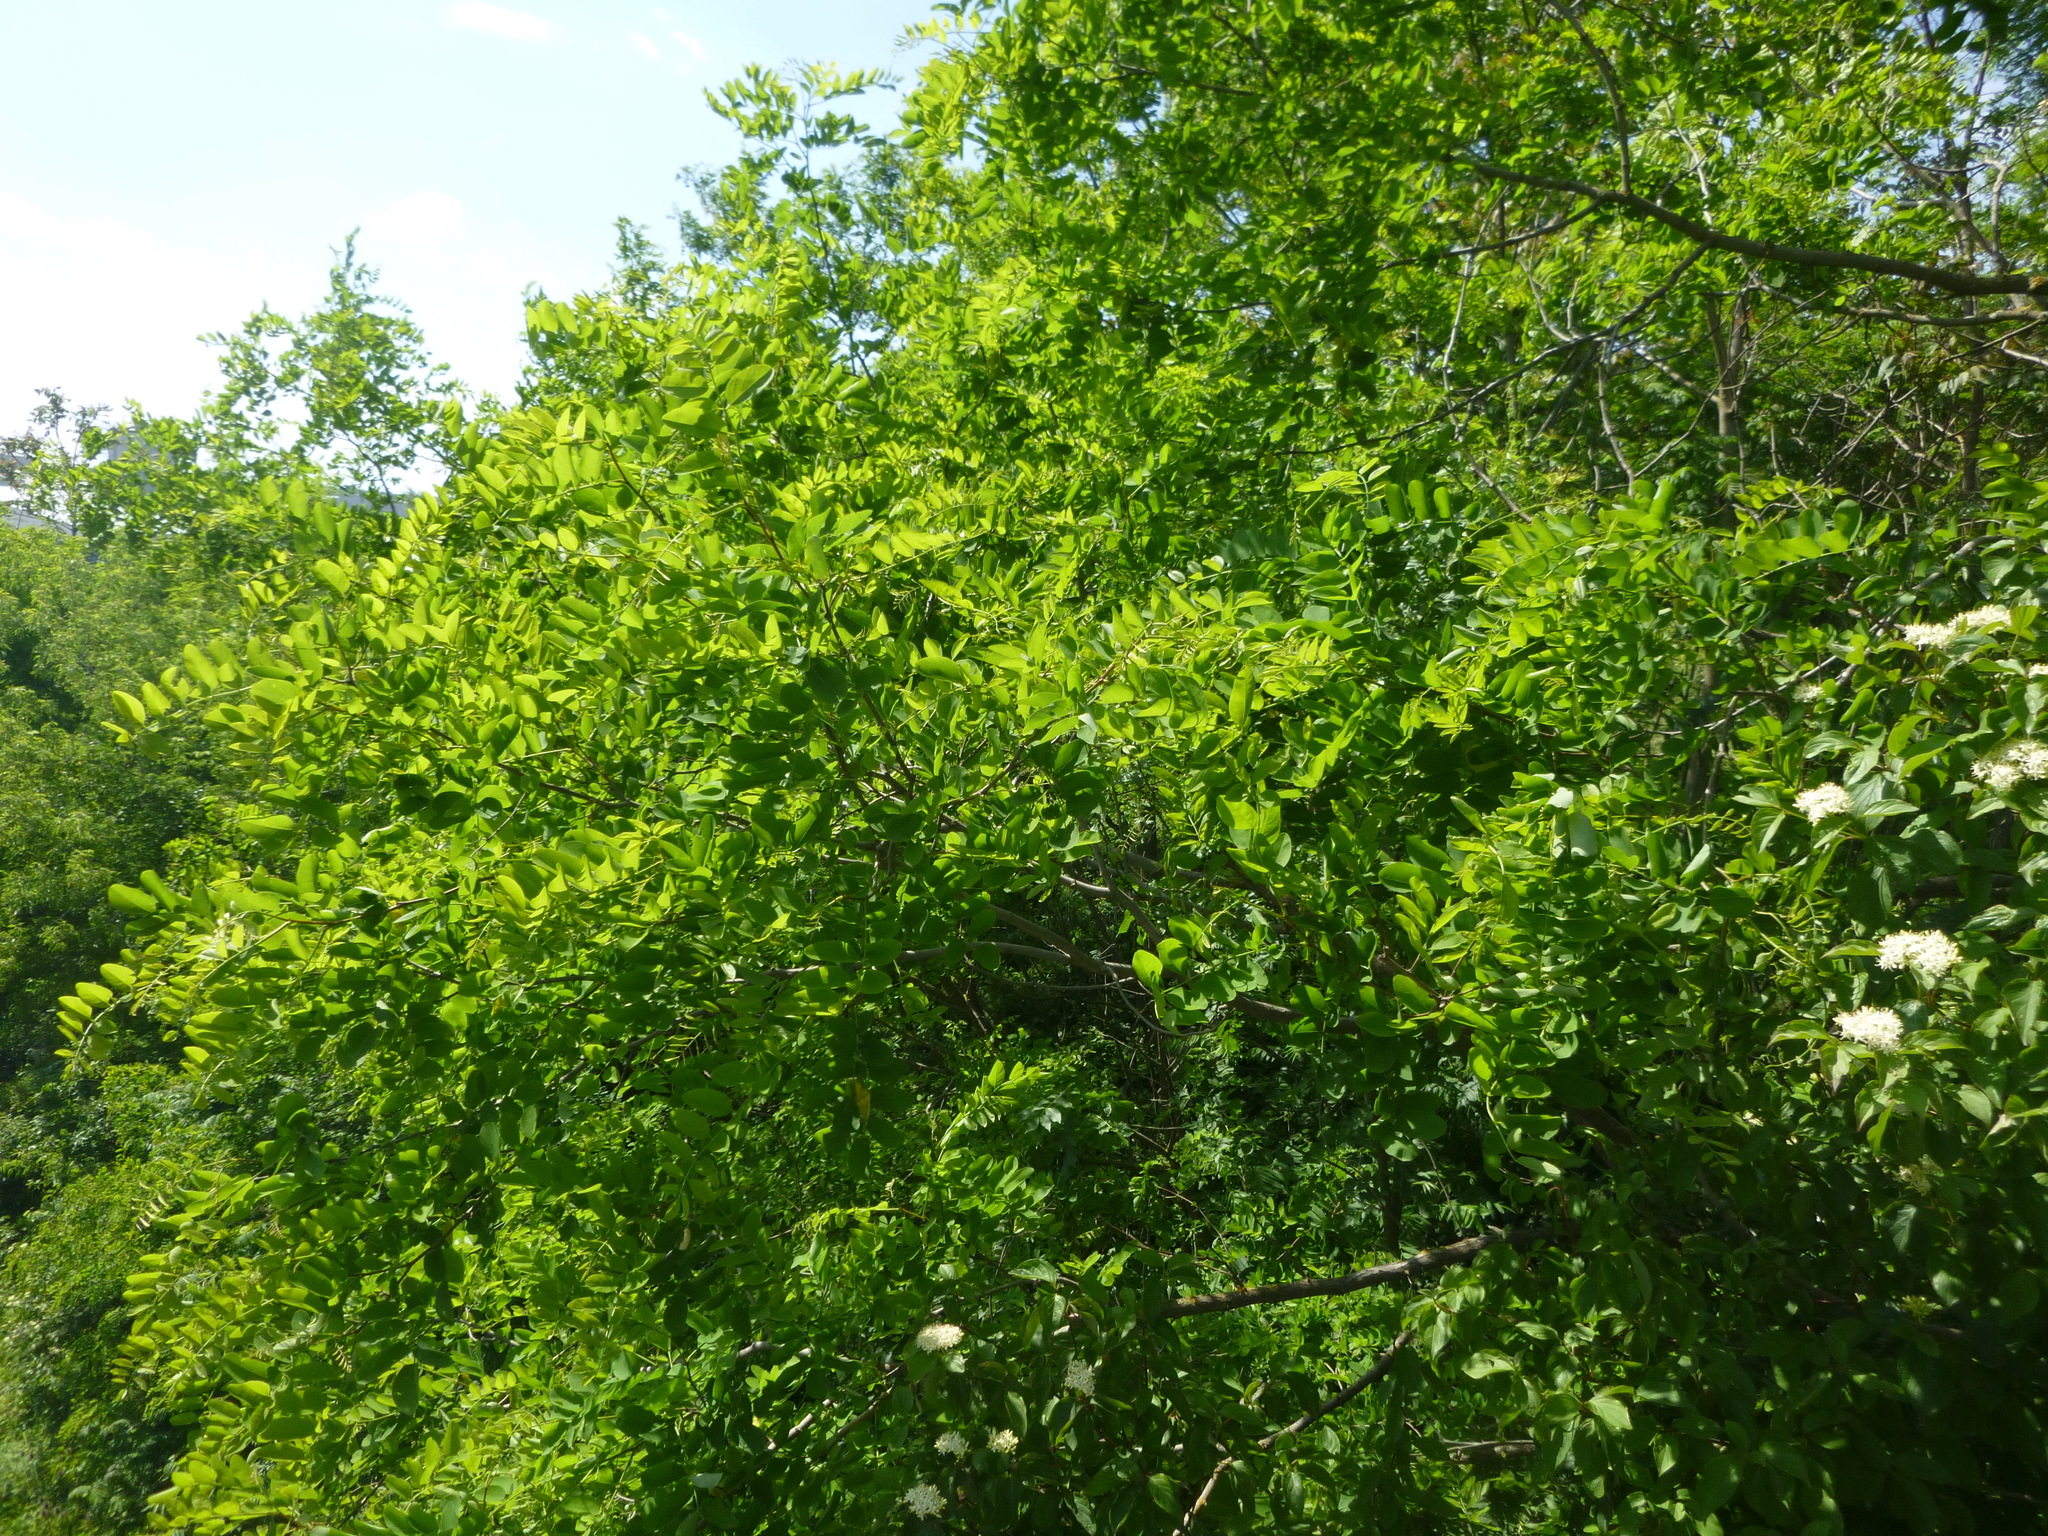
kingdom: Plantae
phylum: Tracheophyta
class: Magnoliopsida
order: Fabales
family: Fabaceae
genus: Robinia
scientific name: Robinia pseudoacacia
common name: Black locust
